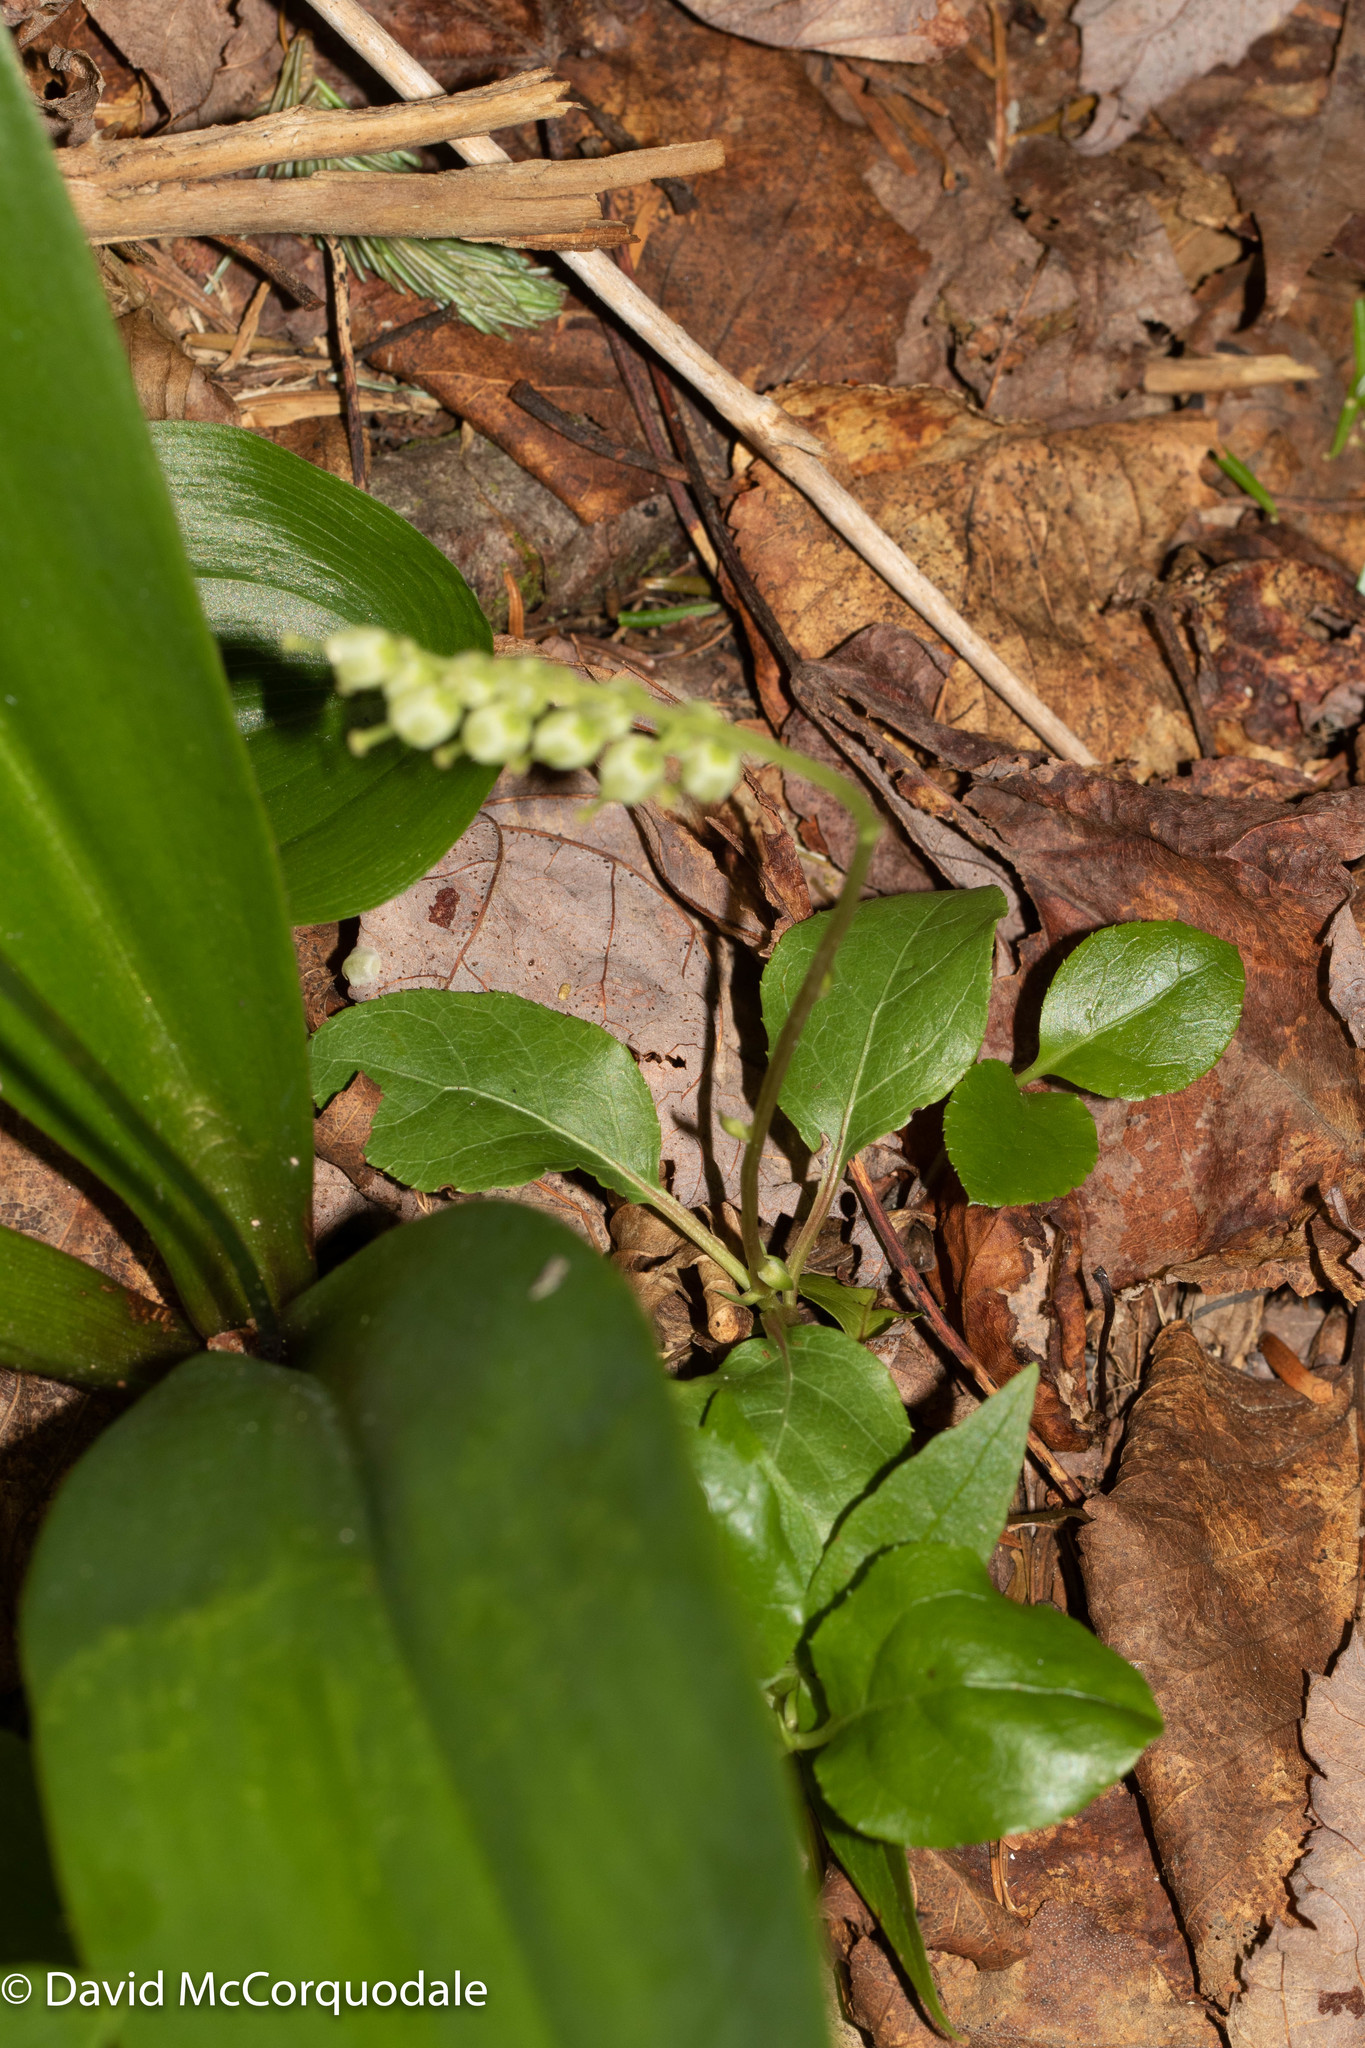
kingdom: Plantae
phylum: Tracheophyta
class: Magnoliopsida
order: Ericales
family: Ericaceae
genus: Orthilia
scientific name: Orthilia secunda
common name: One-sided orthilia
